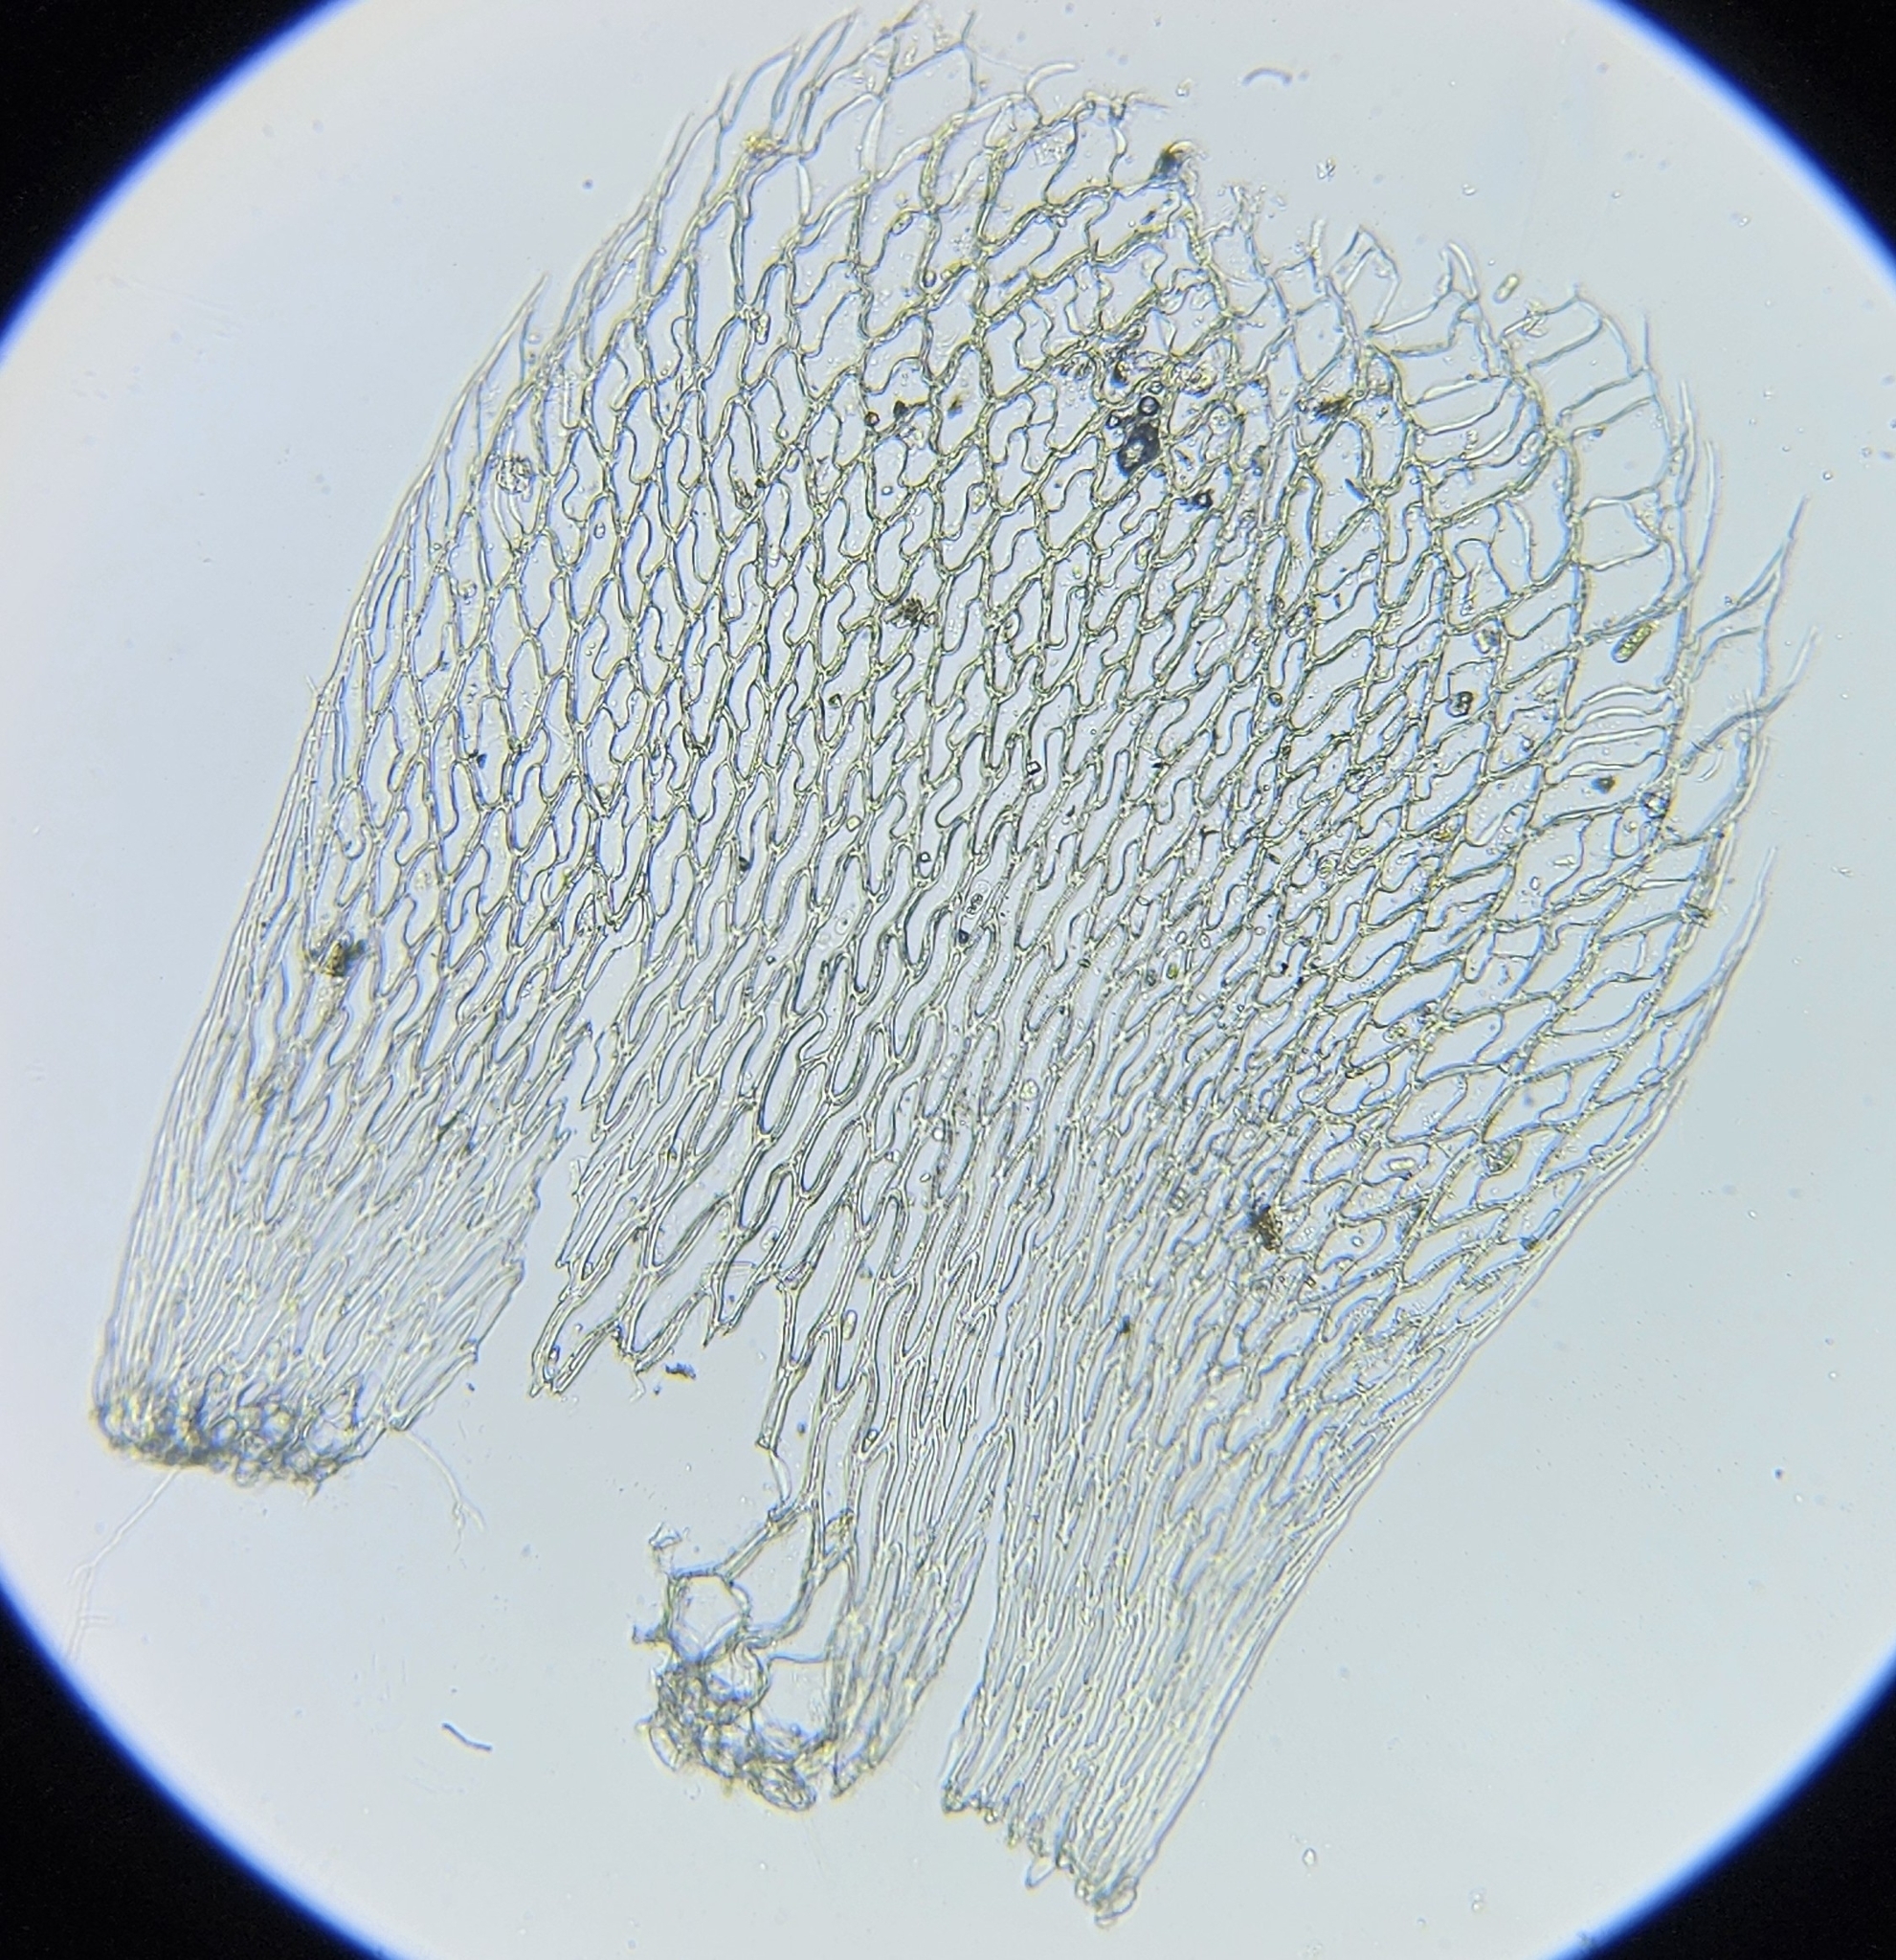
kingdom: Plantae
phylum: Bryophyta
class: Sphagnopsida
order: Sphagnales
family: Sphagnaceae
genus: Sphagnum
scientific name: Sphagnum fimbriatum
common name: Fringed peat moss
